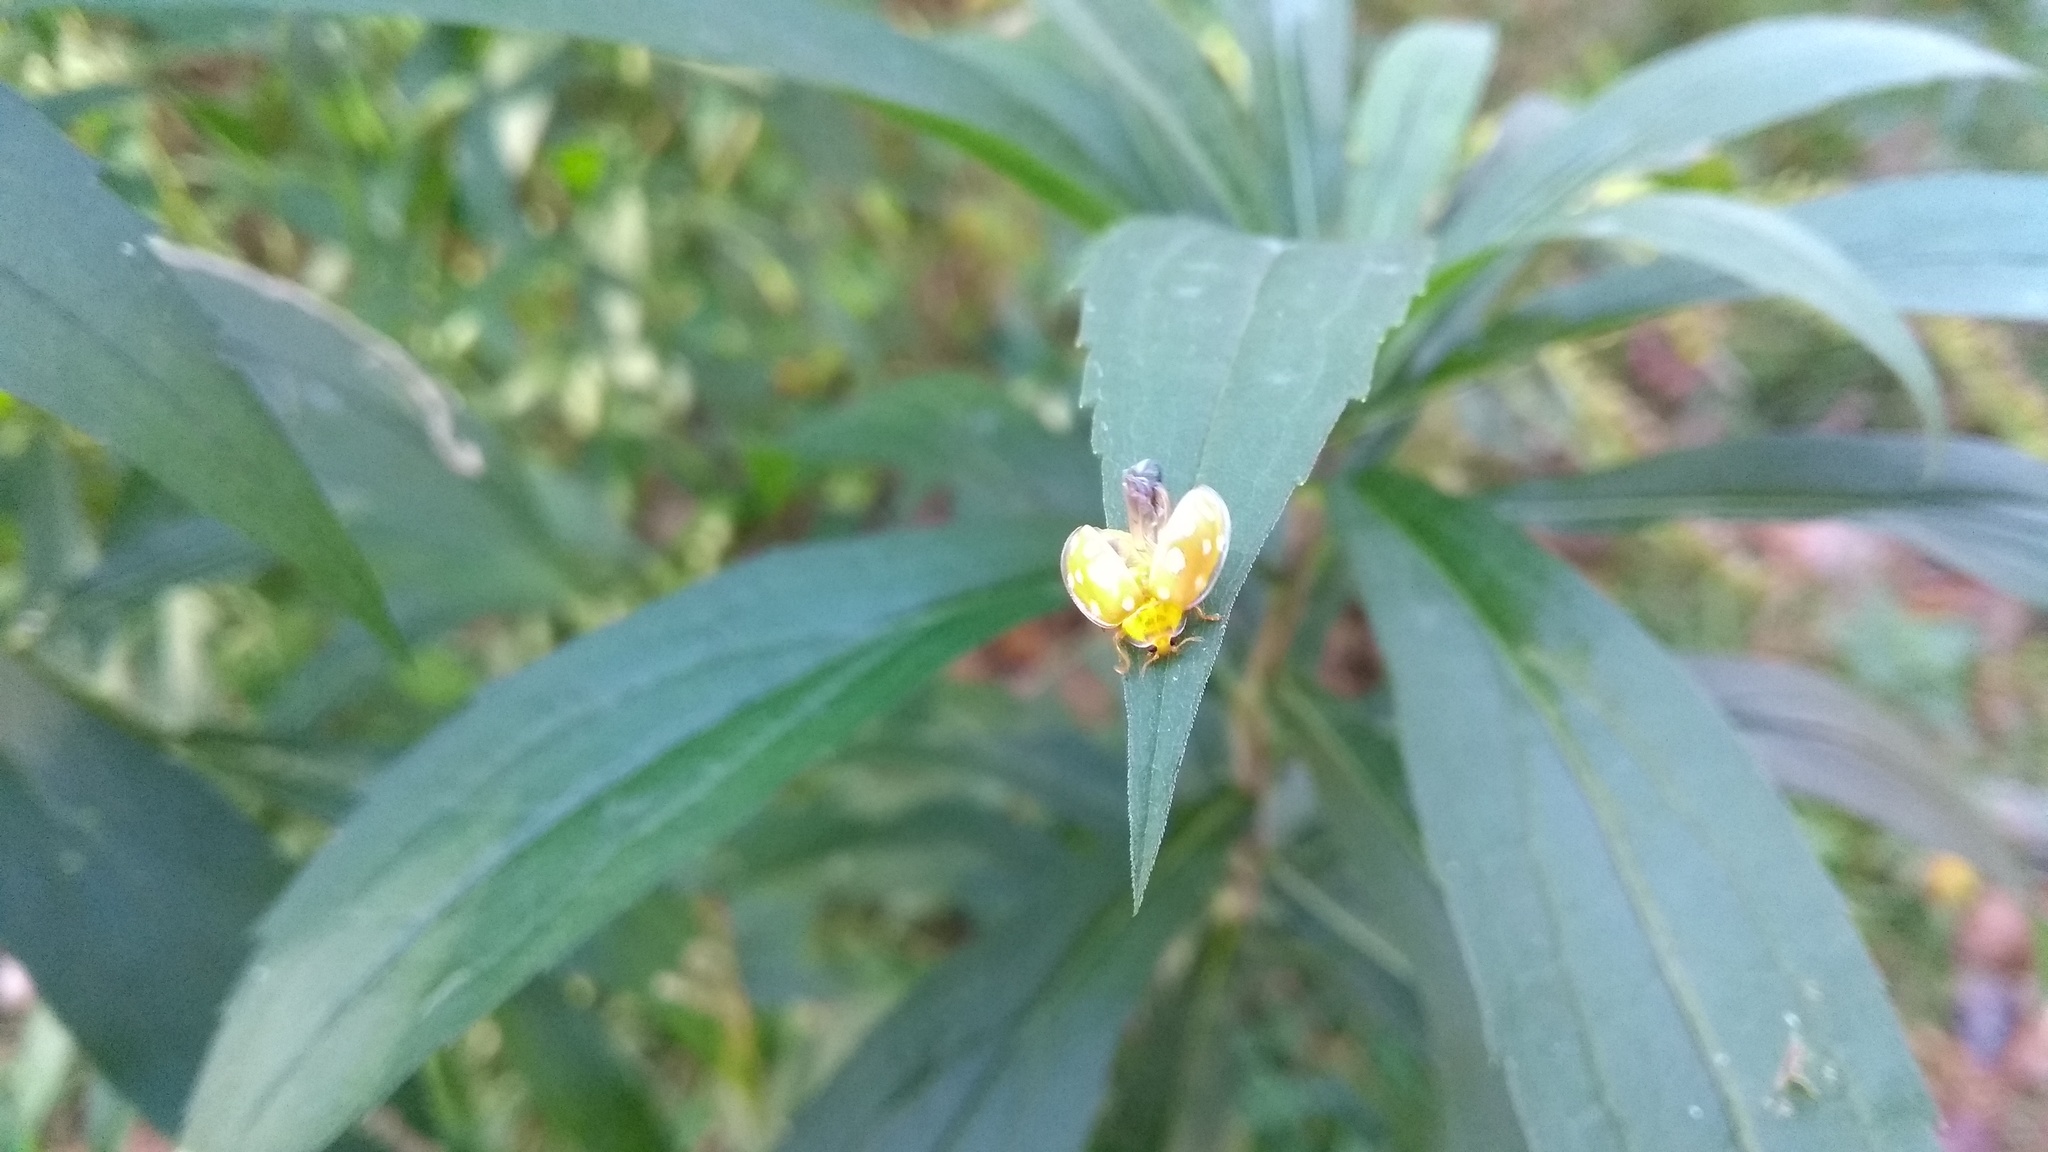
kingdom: Animalia
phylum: Arthropoda
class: Insecta
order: Coleoptera
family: Coccinellidae
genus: Halyzia
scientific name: Halyzia sedecimguttata
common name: Orange ladybird
